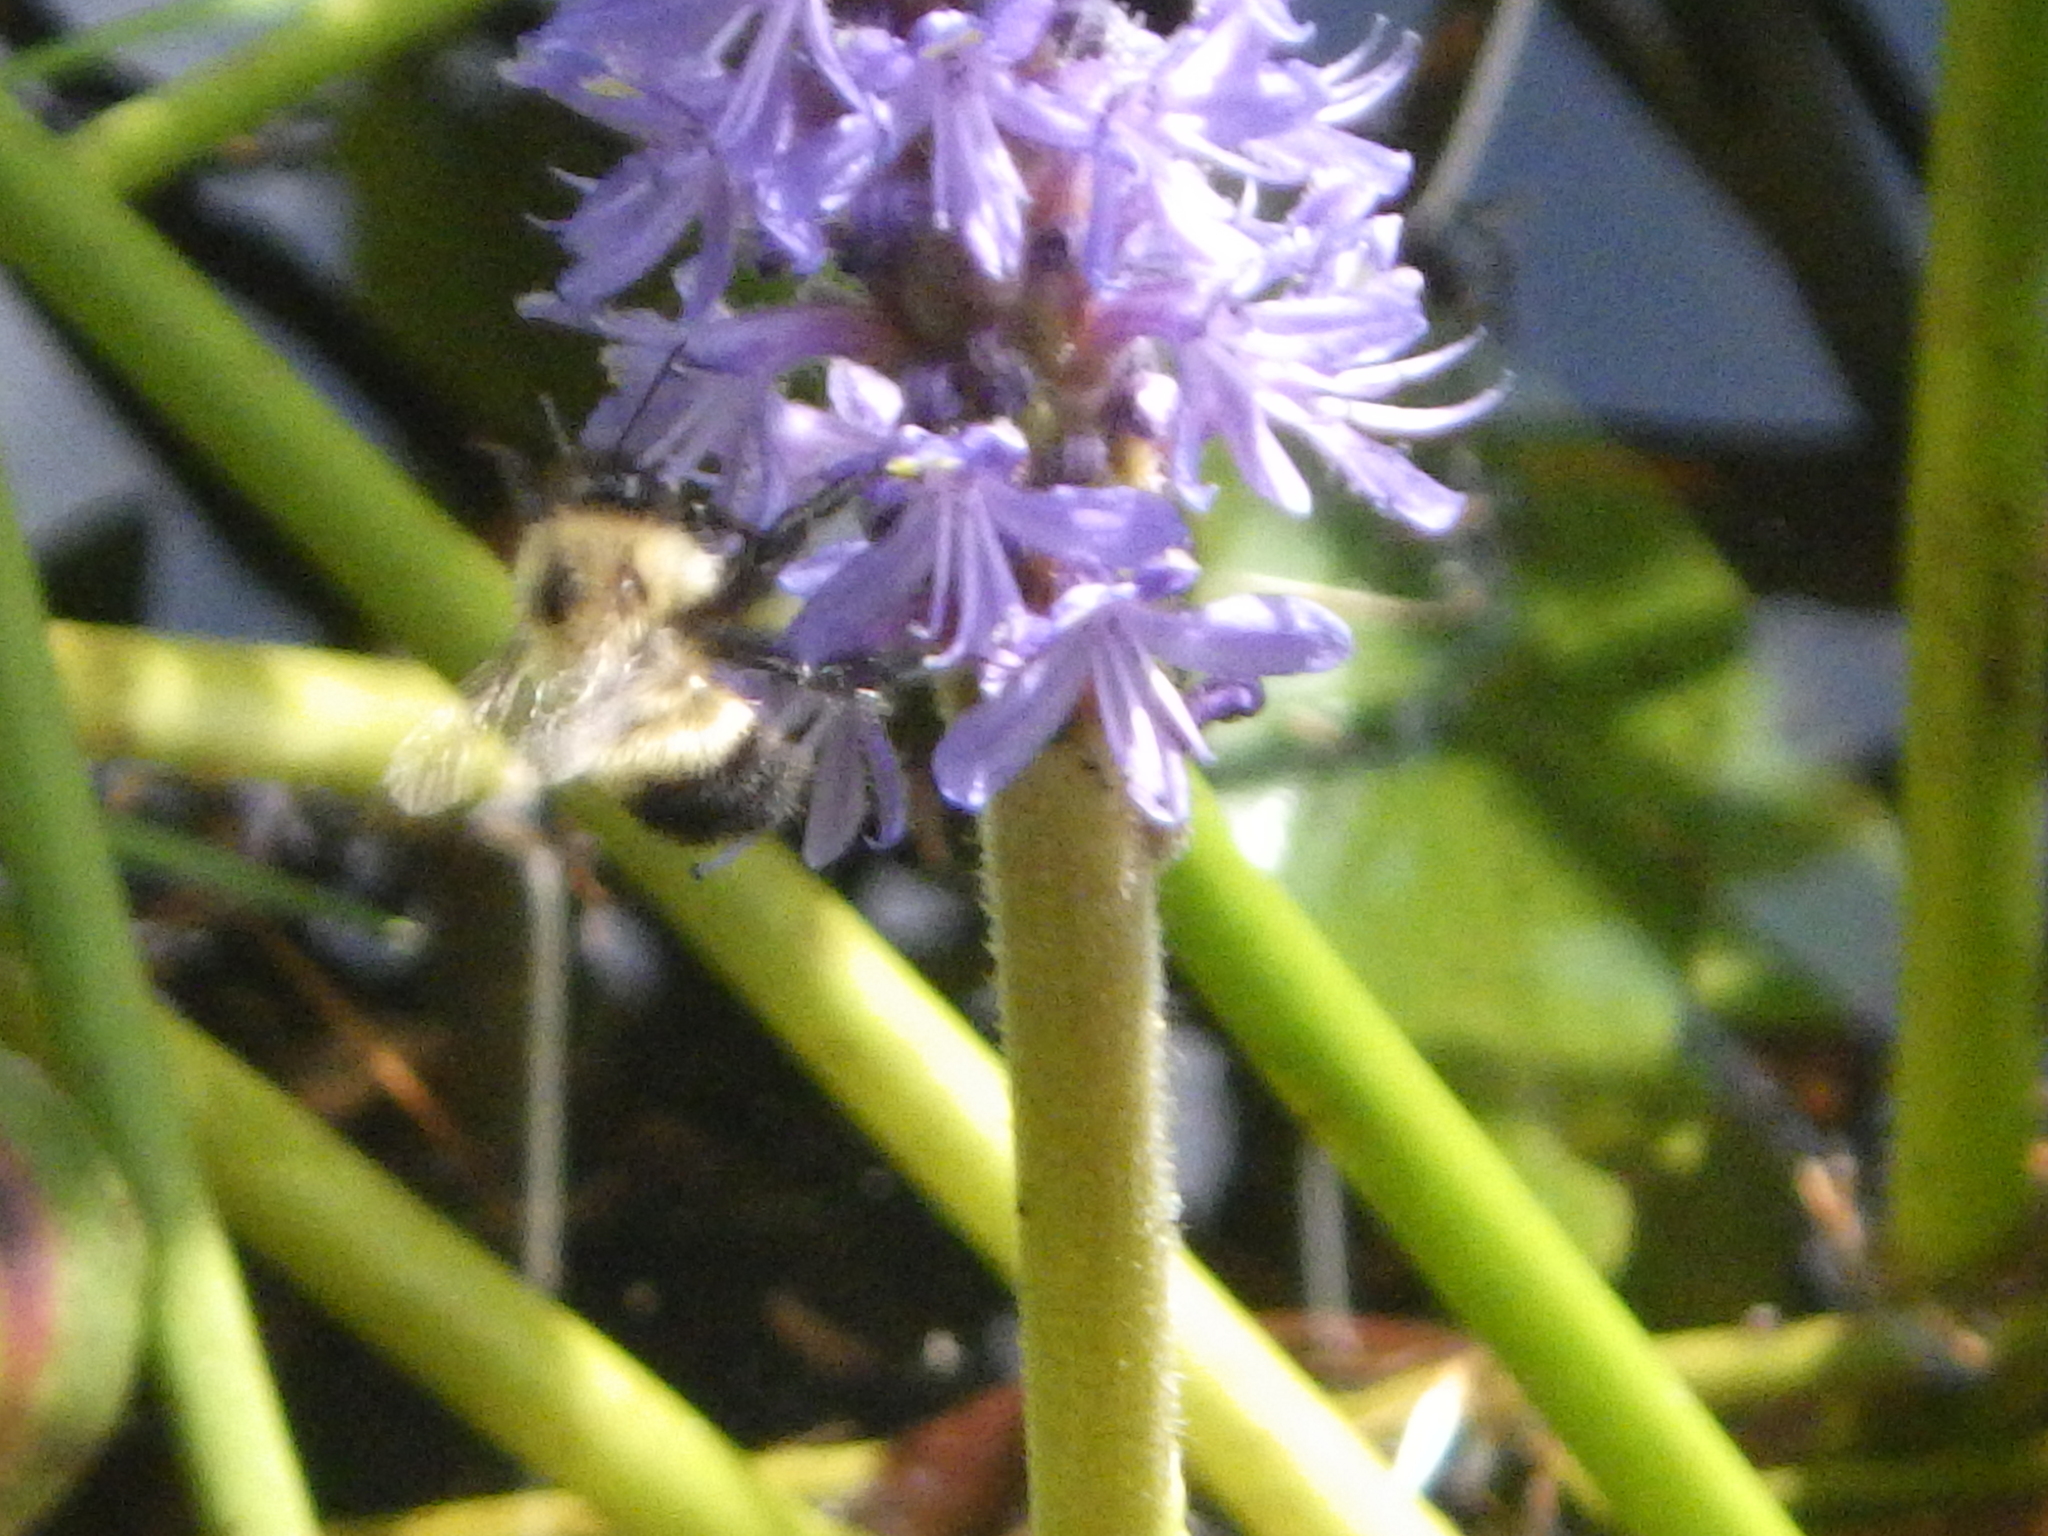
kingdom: Animalia
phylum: Arthropoda
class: Insecta
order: Hymenoptera
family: Apidae
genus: Pyrobombus
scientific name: Pyrobombus
